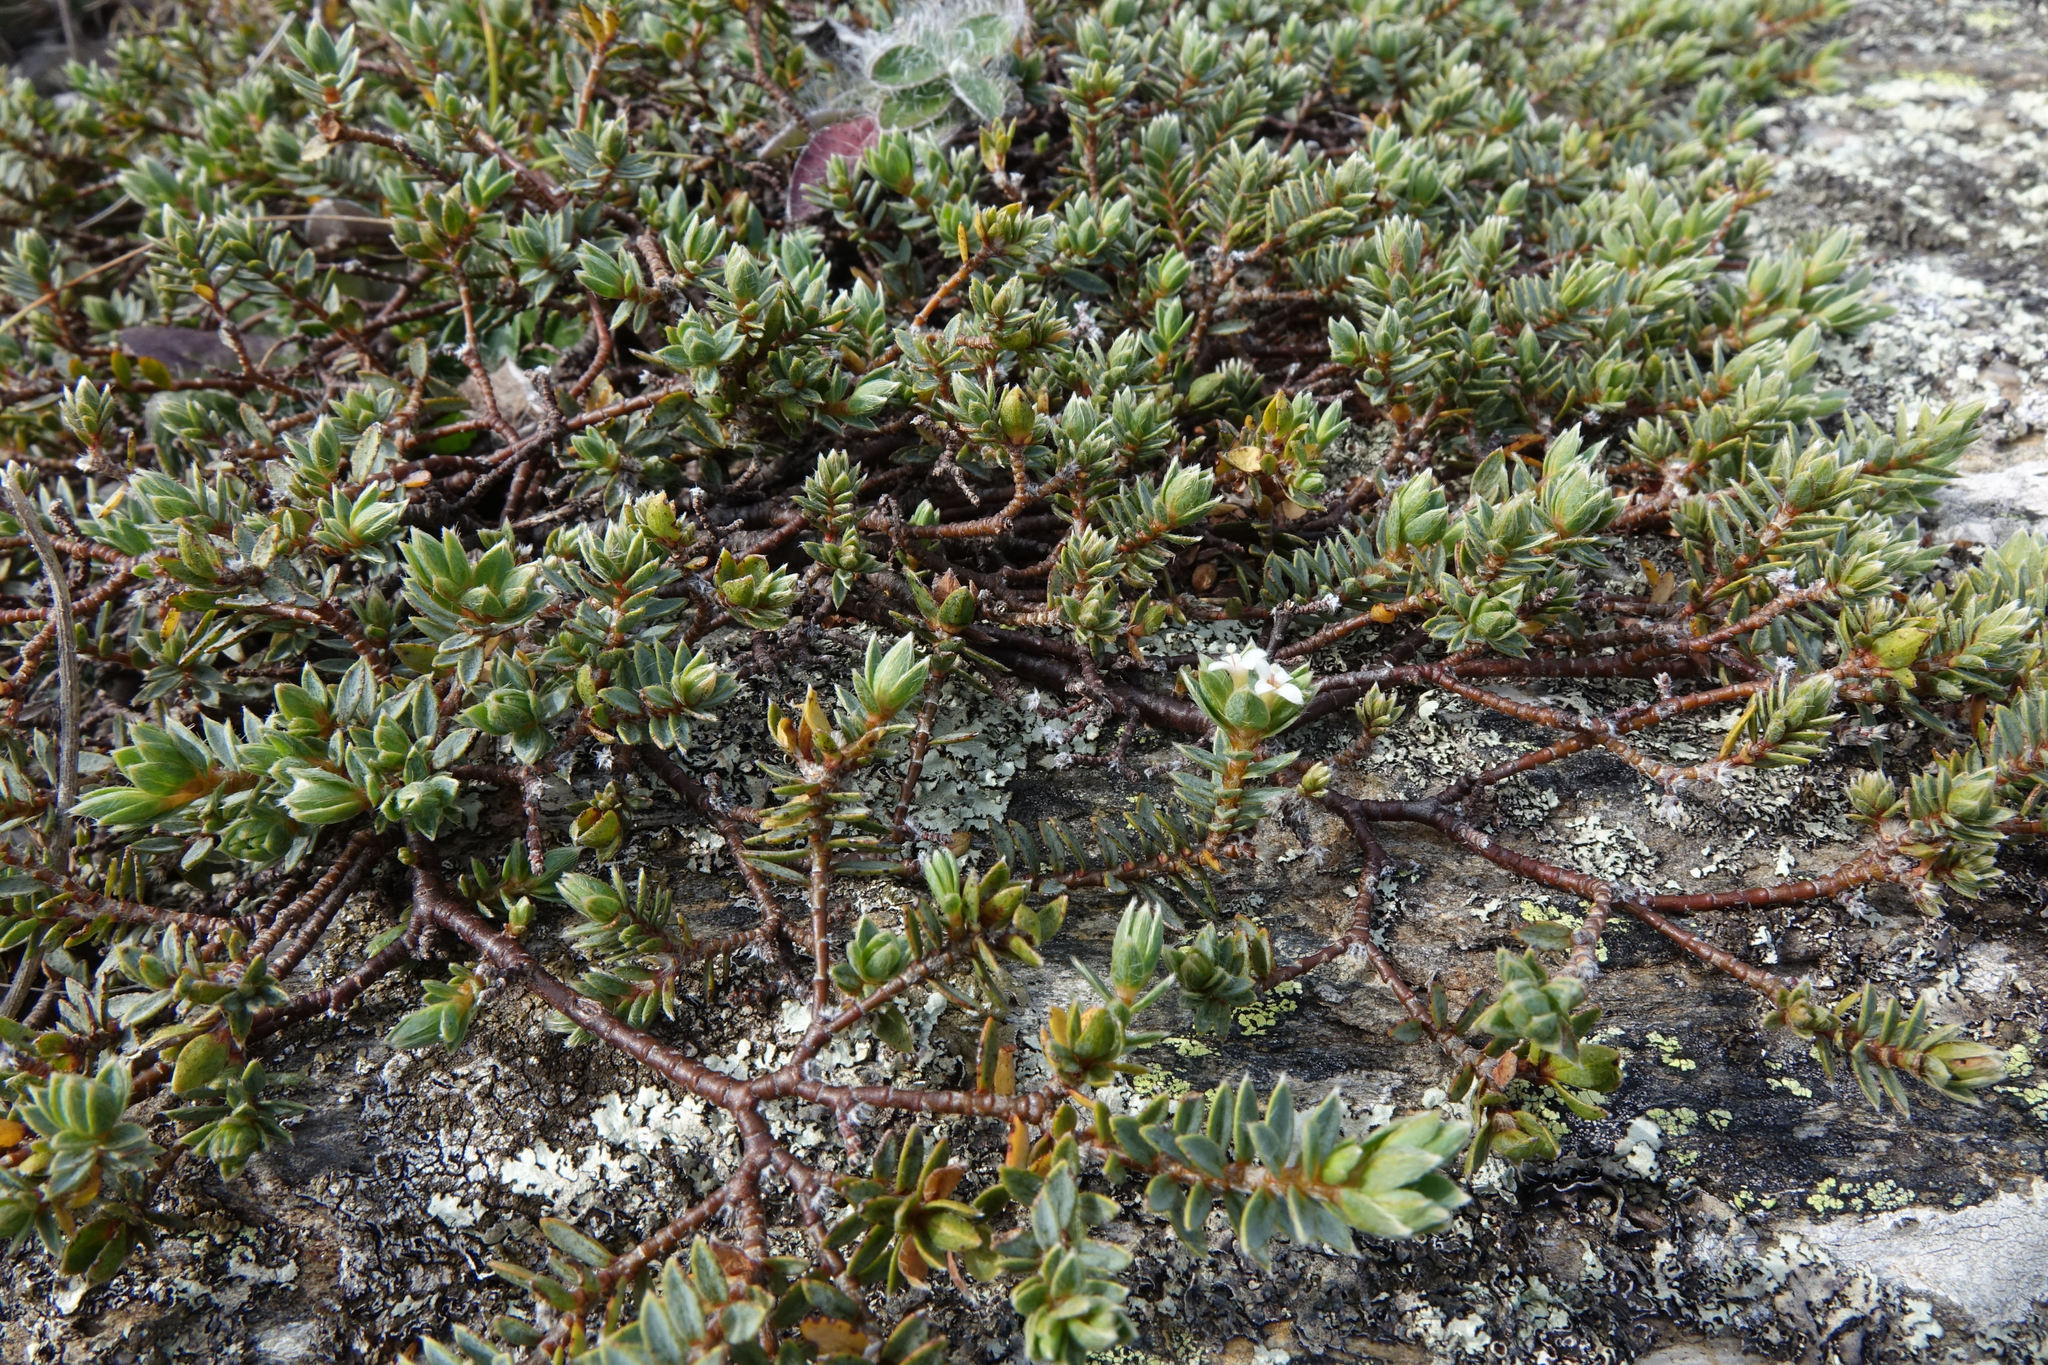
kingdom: Plantae
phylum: Tracheophyta
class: Magnoliopsida
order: Malvales
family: Thymelaeaceae
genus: Pimelea
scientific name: Pimelea oreophila
